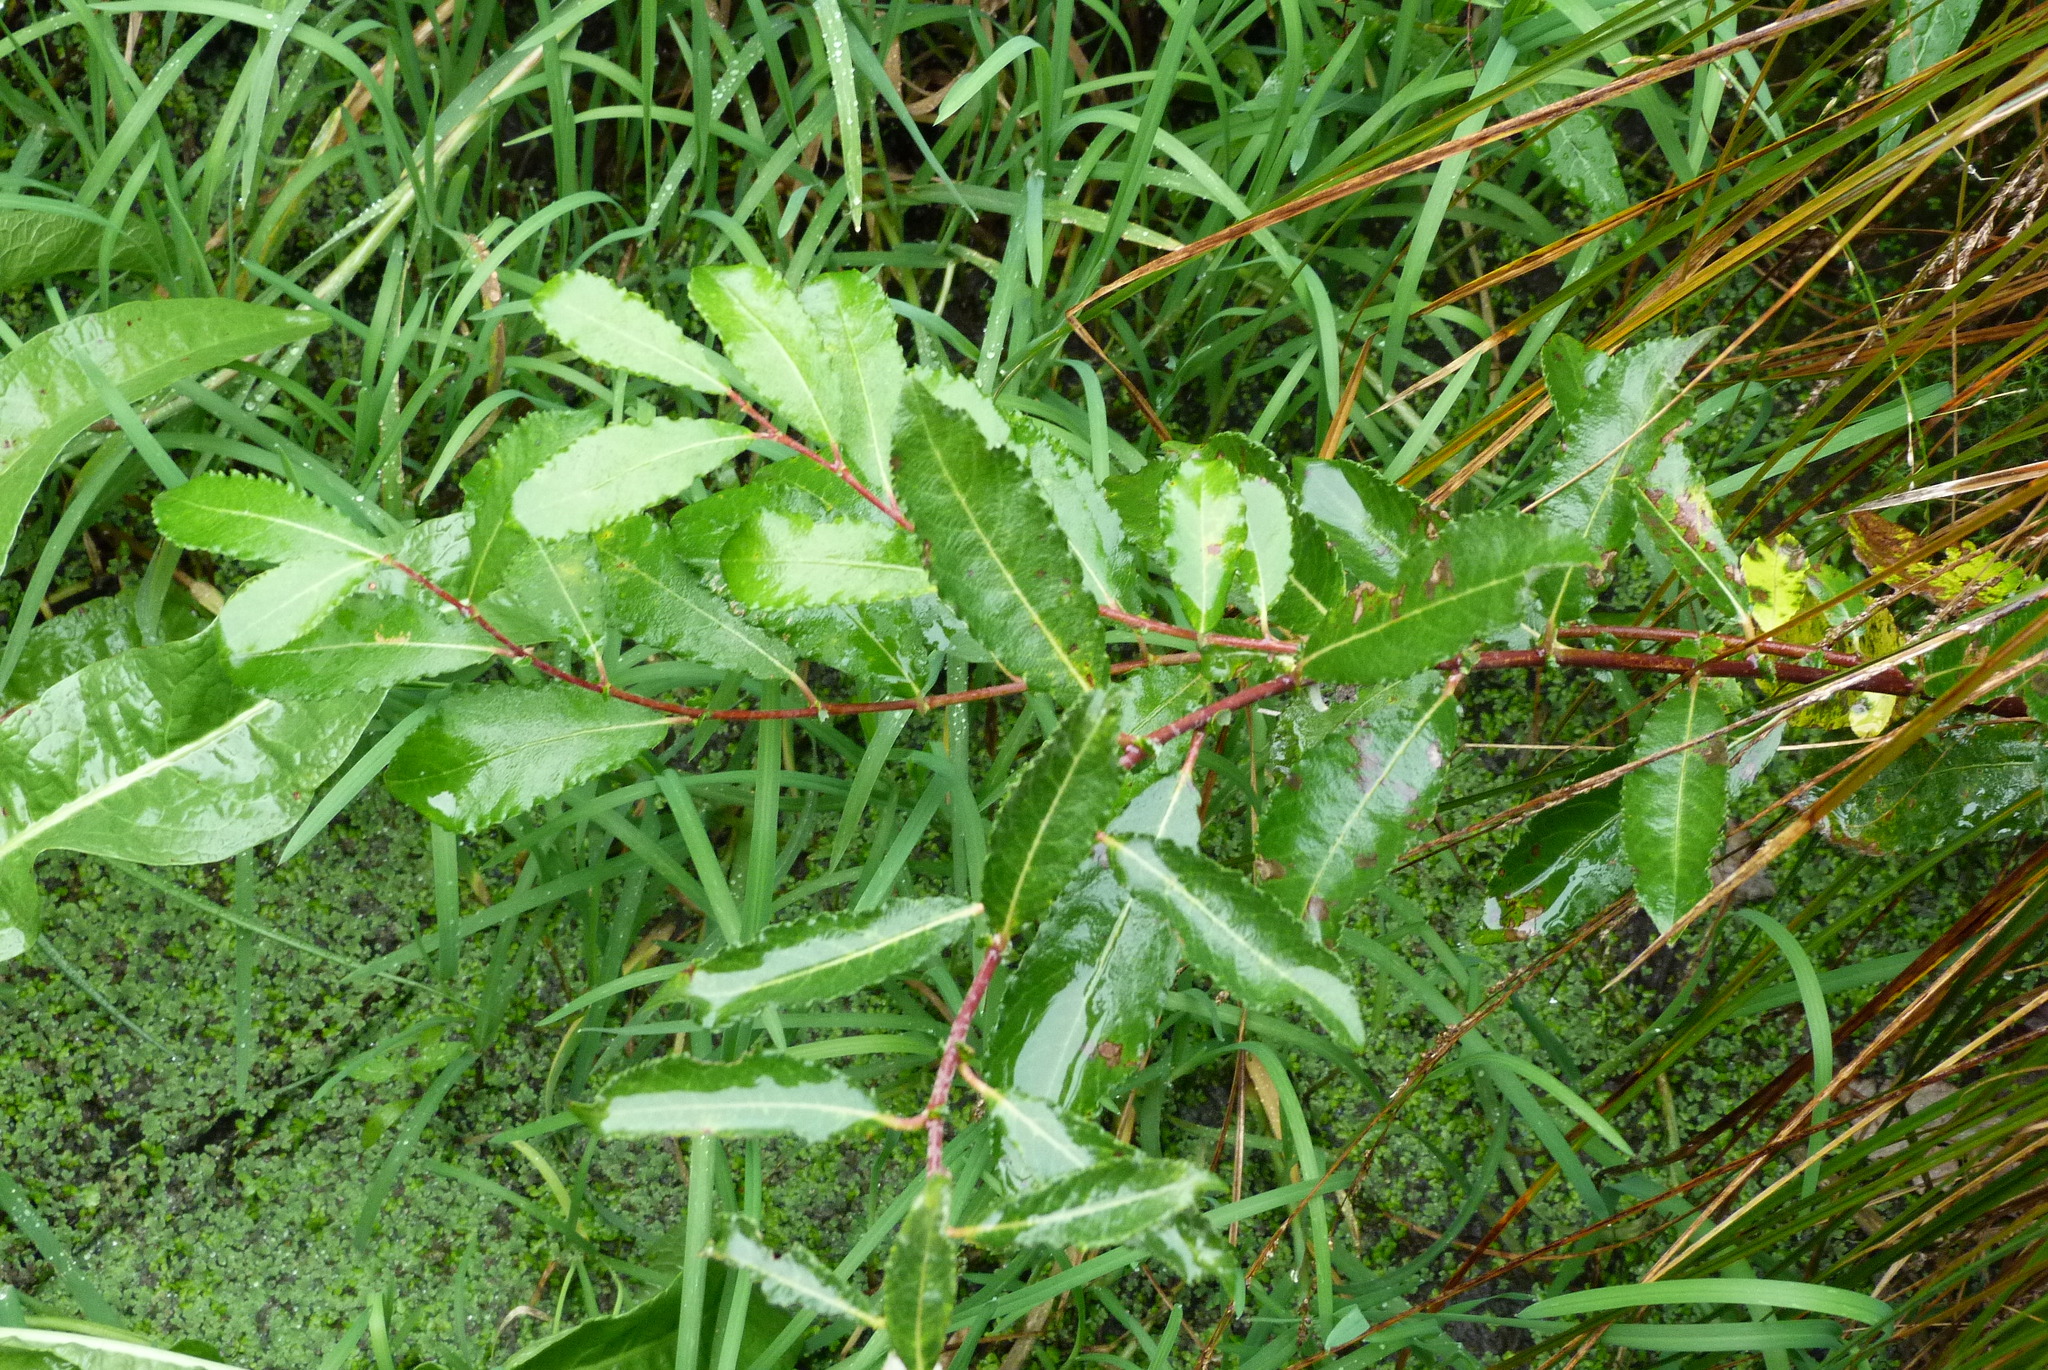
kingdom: Plantae
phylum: Tracheophyta
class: Magnoliopsida
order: Malpighiales
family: Salicaceae
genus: Salix
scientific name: Salix cinerea
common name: Common sallow
